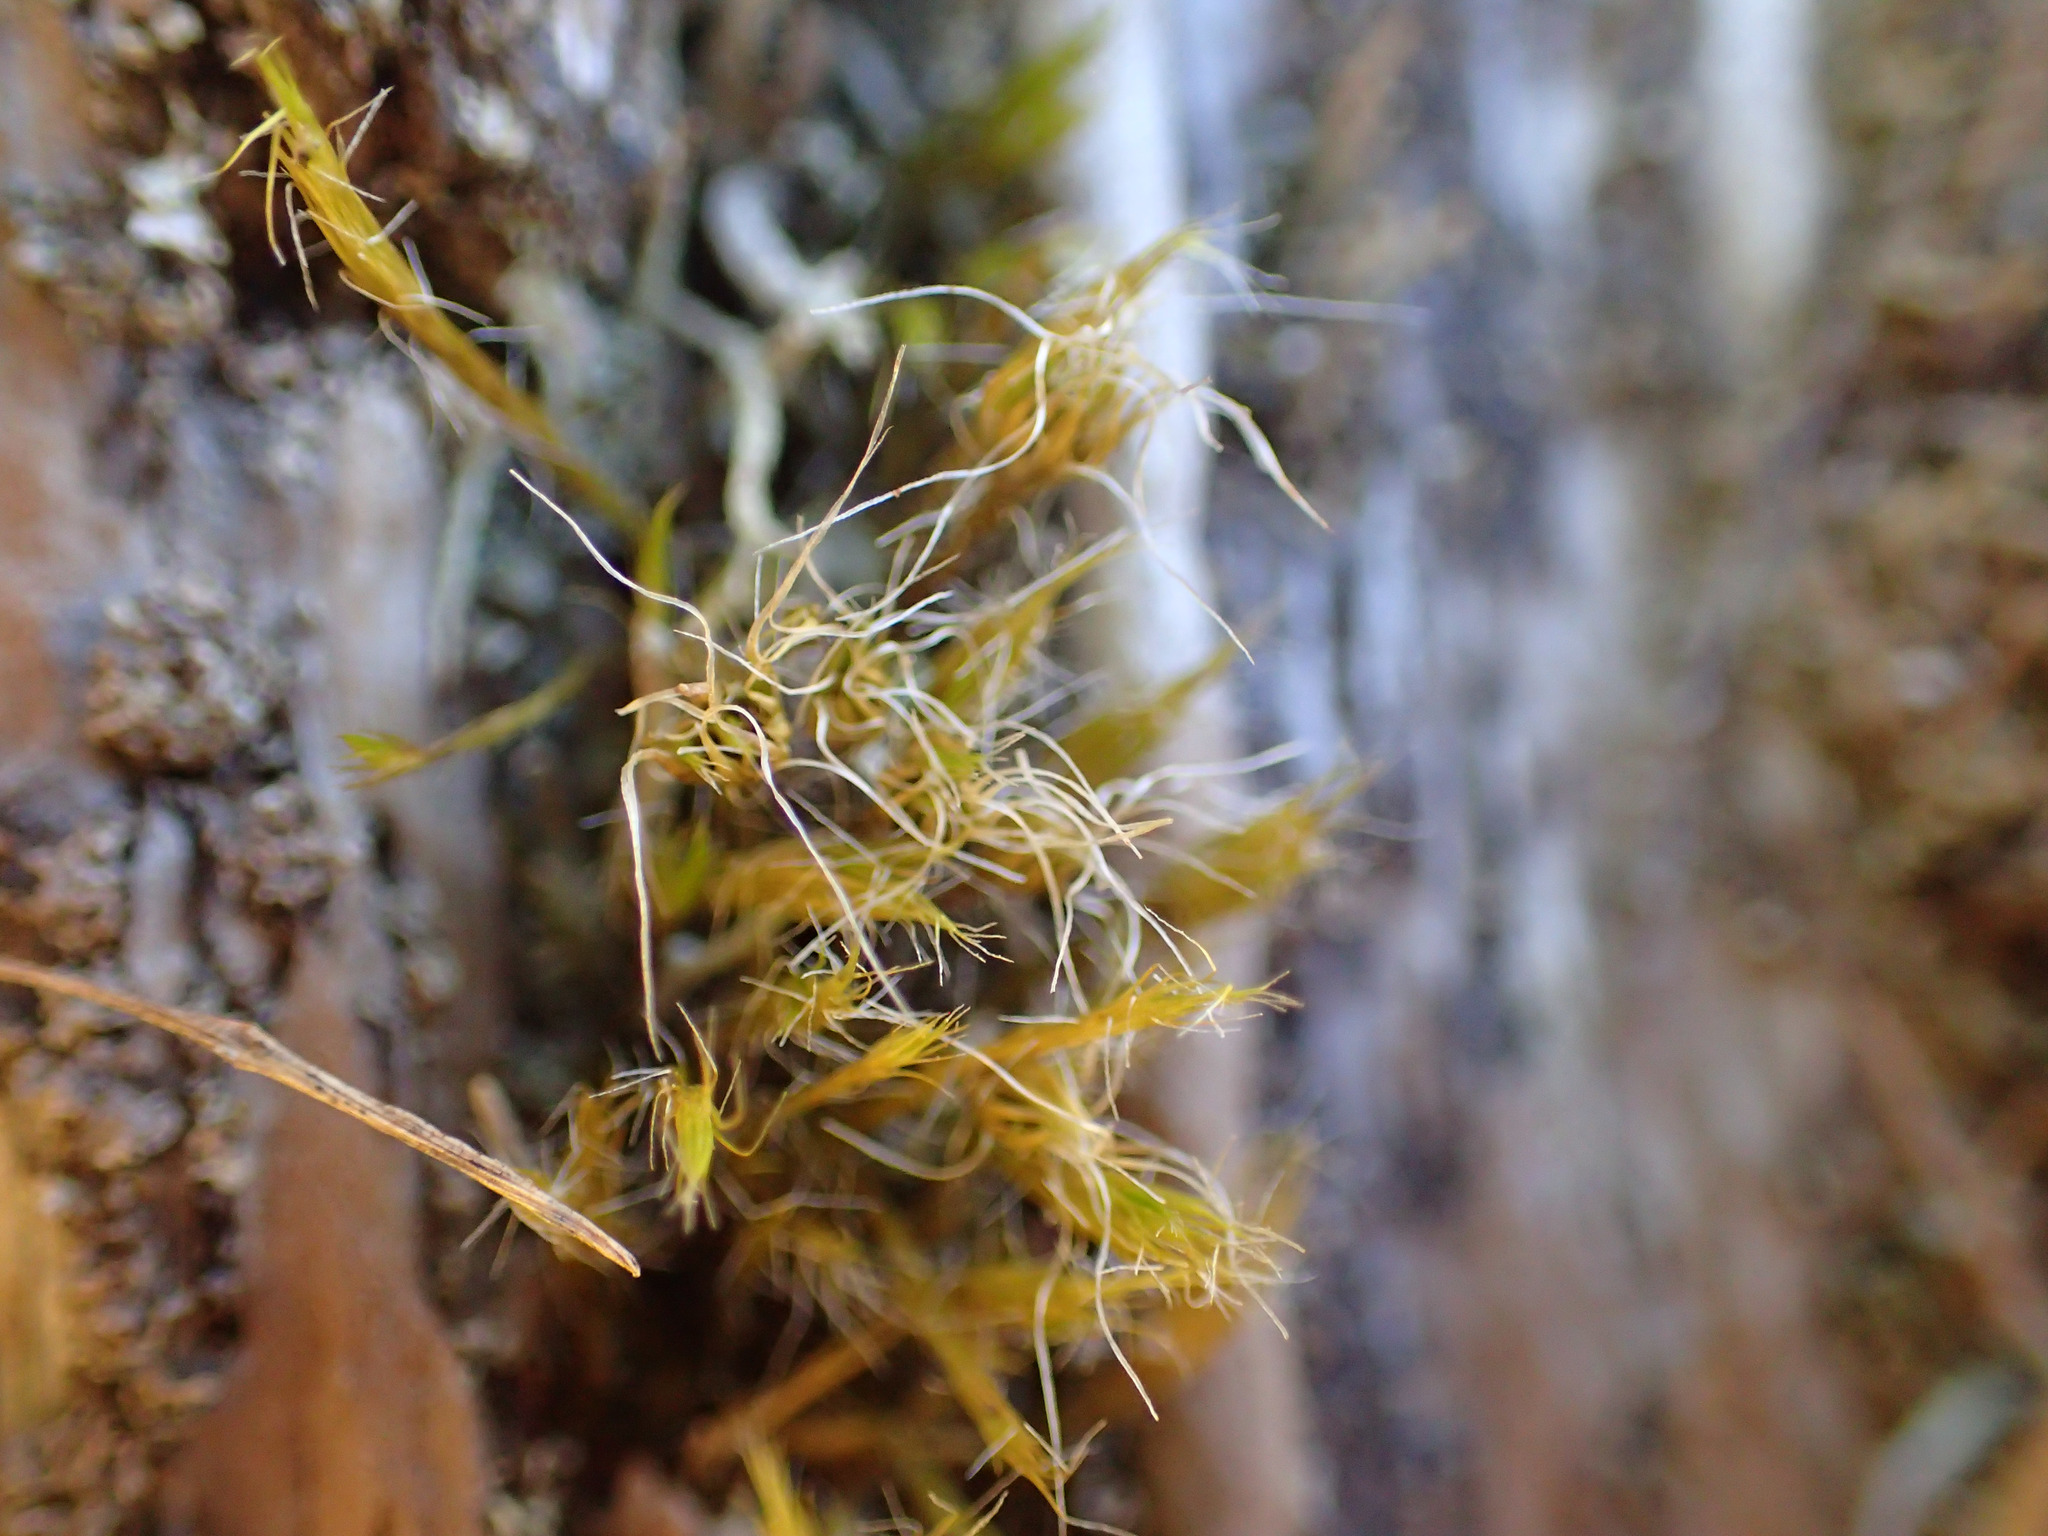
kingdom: Plantae
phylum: Bryophyta
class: Bryopsida
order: Dicranales
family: Leucobryaceae
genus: Campylopus
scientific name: Campylopus introflexus
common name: Heath star moss
